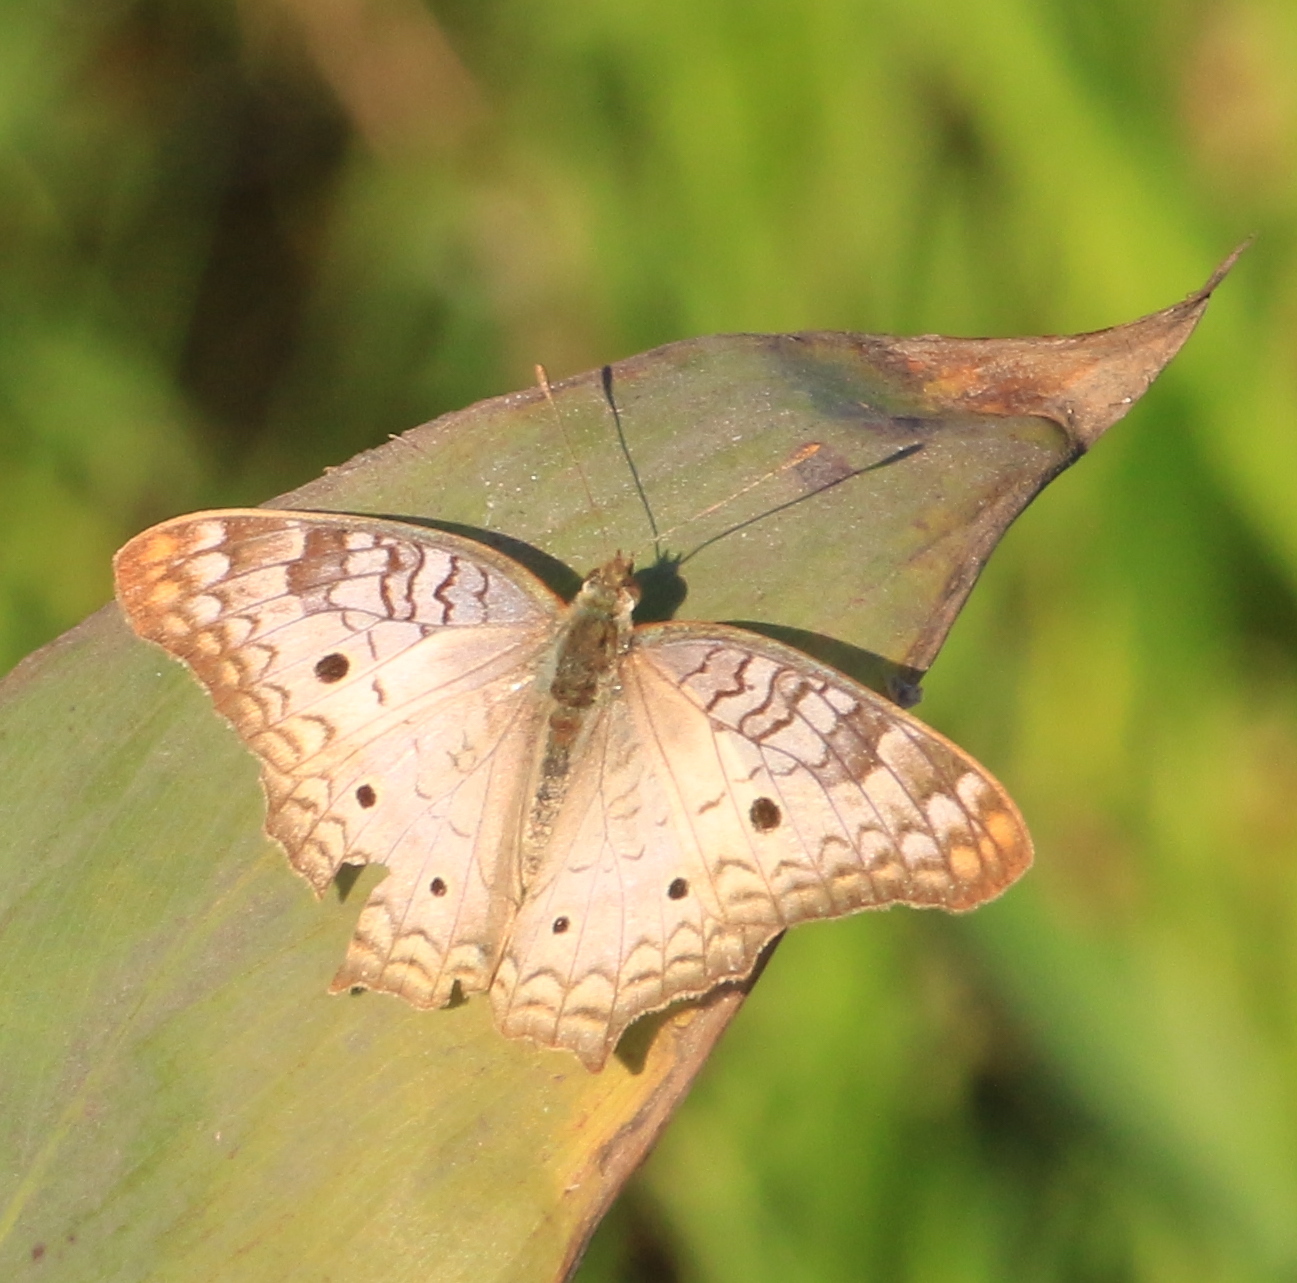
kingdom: Animalia
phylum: Arthropoda
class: Insecta
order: Lepidoptera
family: Nymphalidae
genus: Anartia
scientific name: Anartia jatrophae
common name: White peacock
